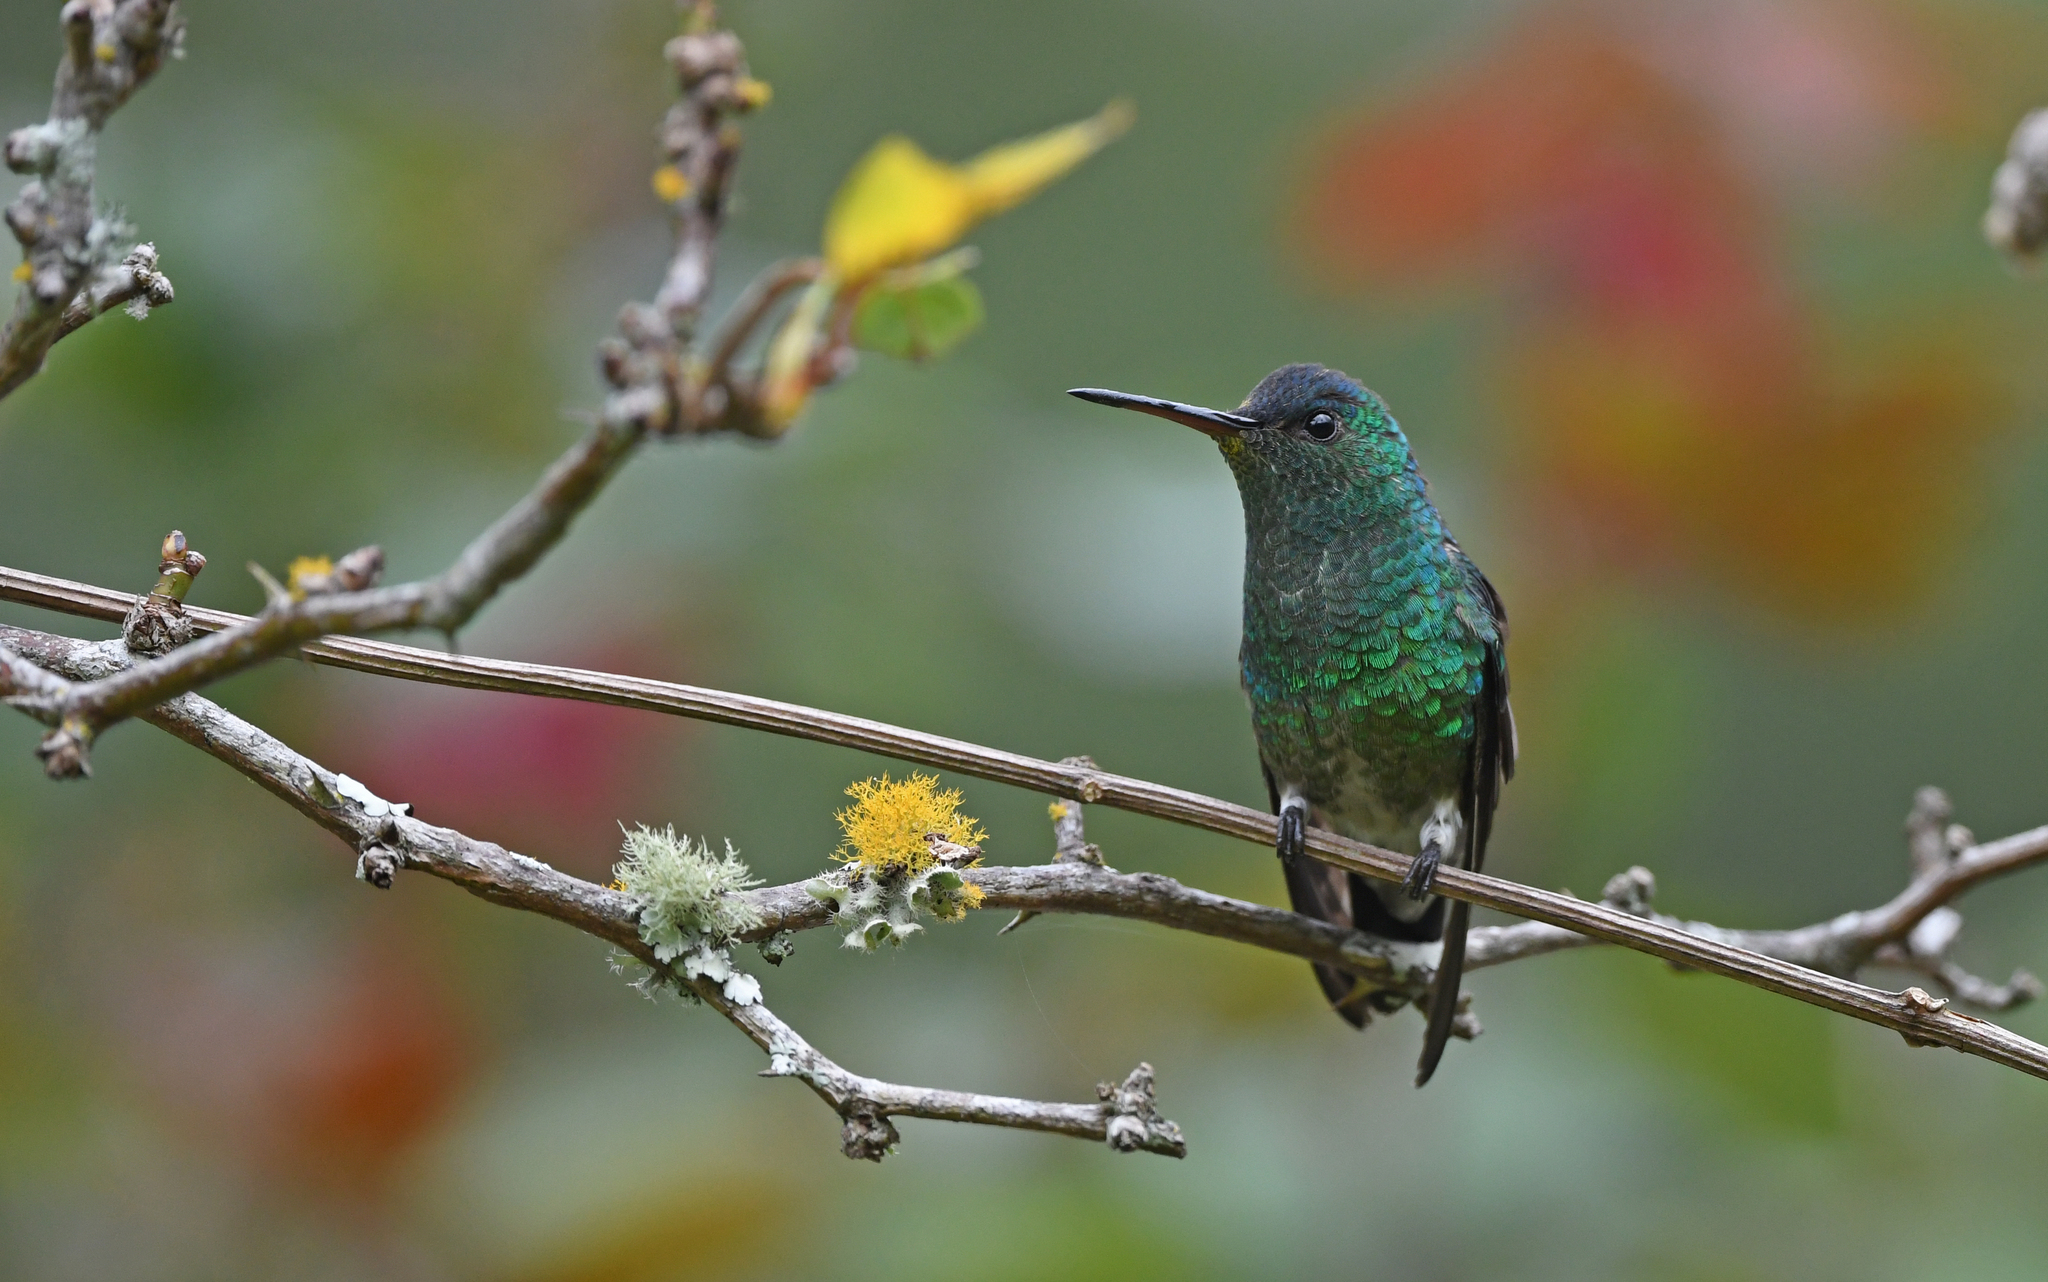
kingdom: Animalia
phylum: Chordata
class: Aves
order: Apodiformes
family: Trochilidae
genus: Saucerottia
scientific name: Saucerottia cyanifrons
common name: Indigo-capped hummingbird
